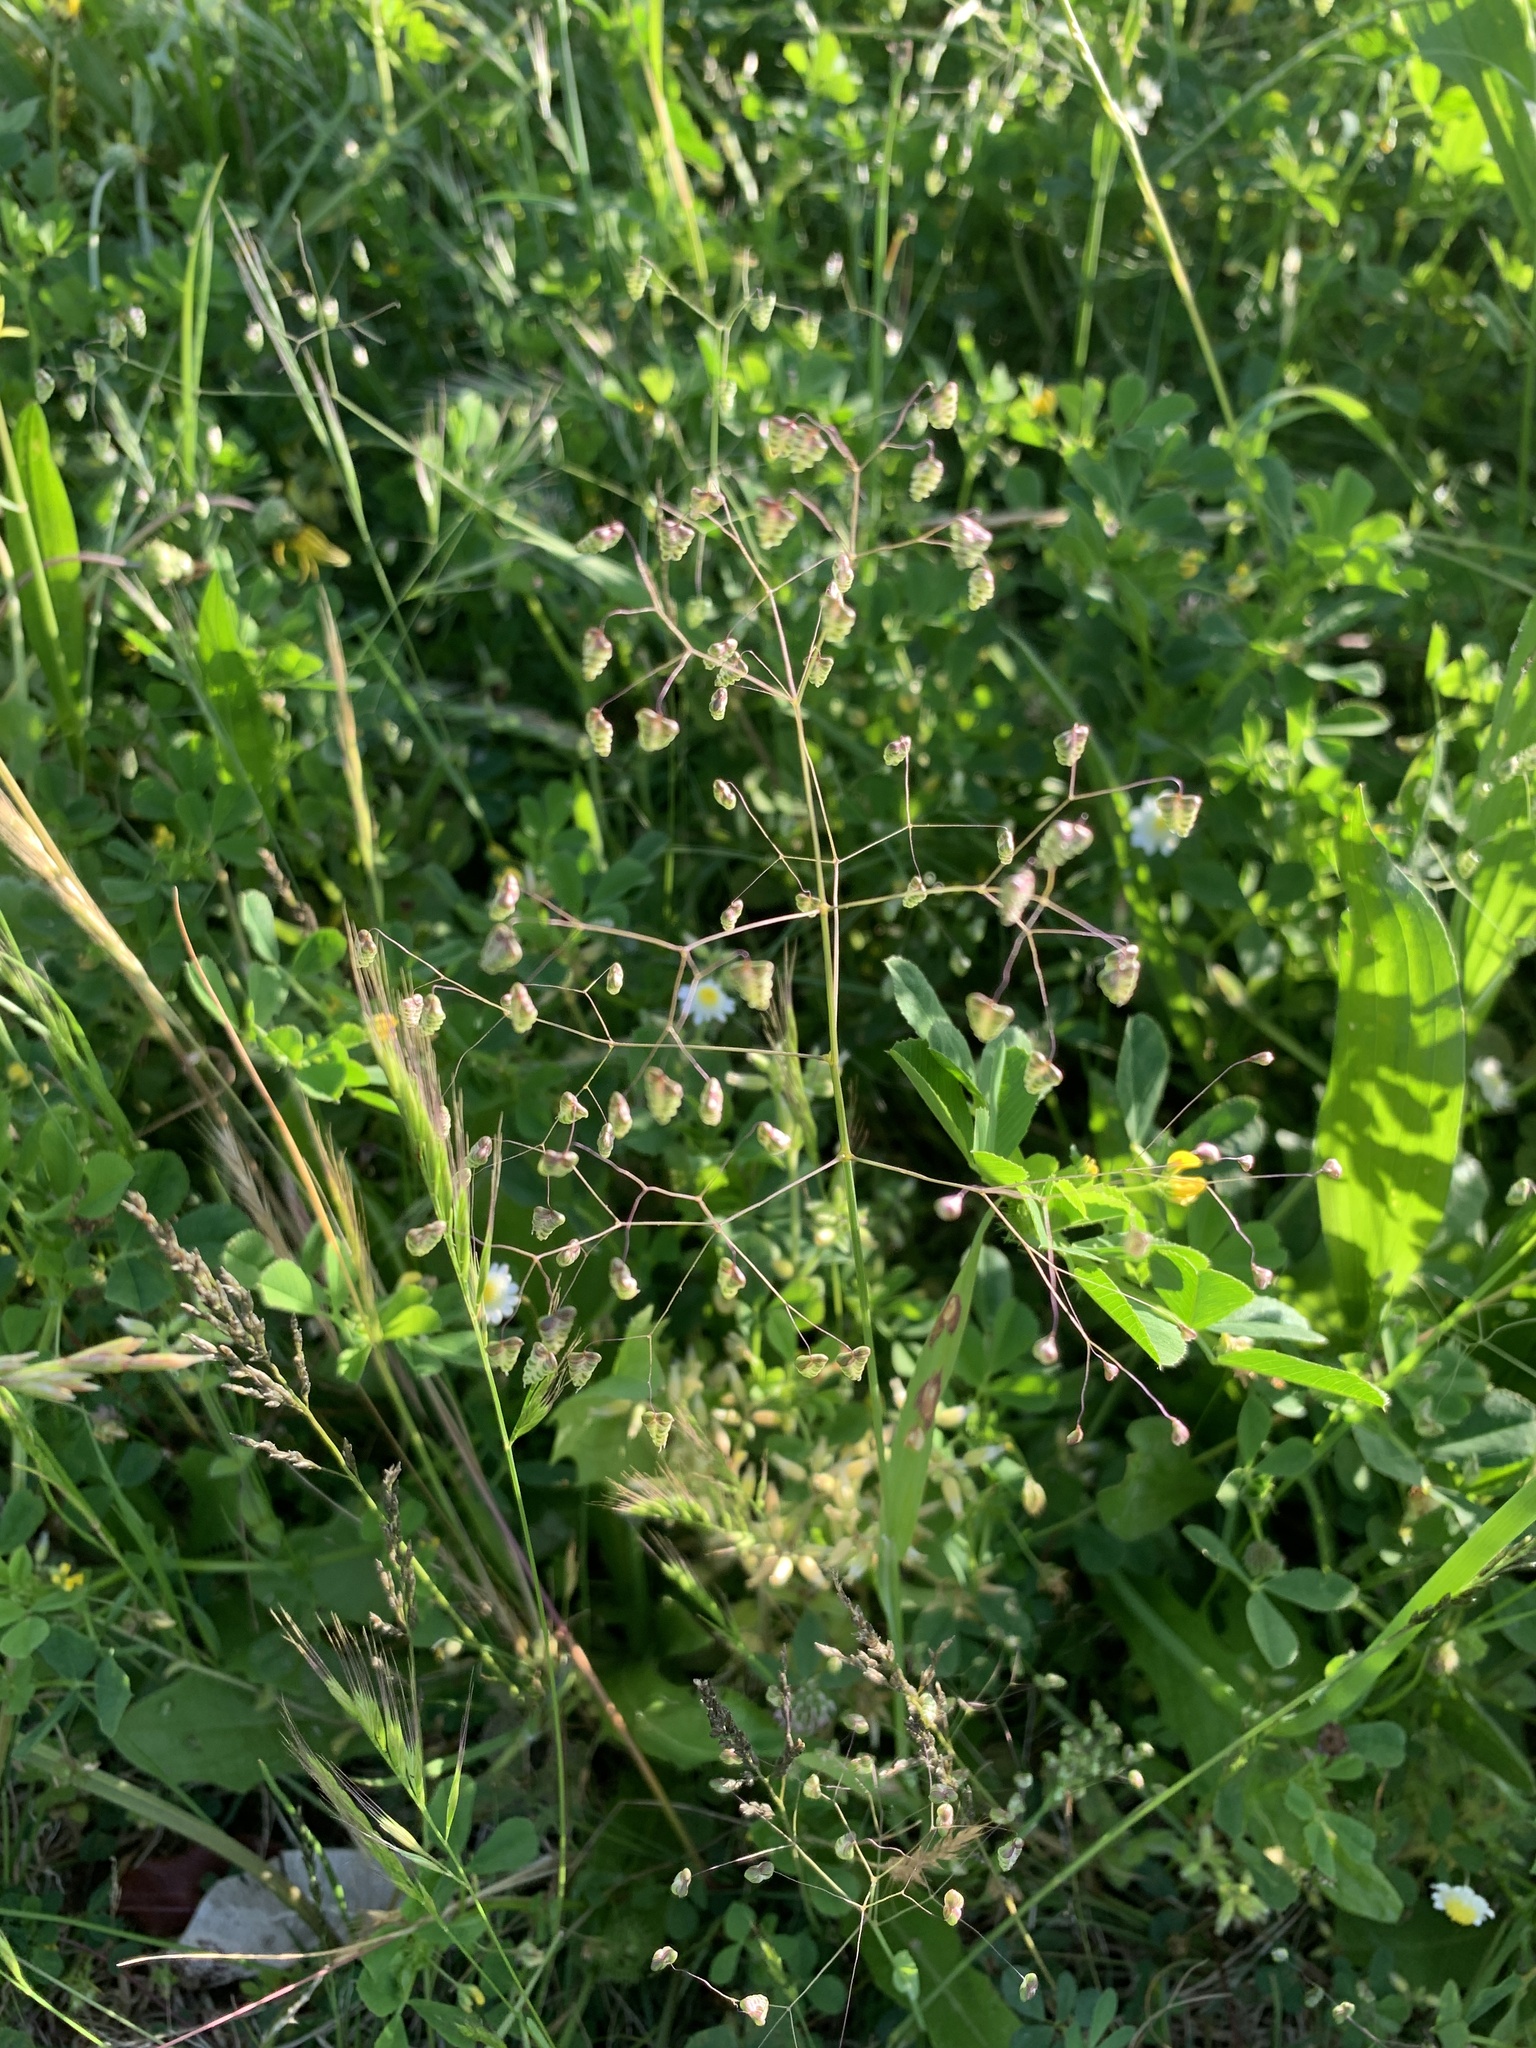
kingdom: Plantae
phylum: Tracheophyta
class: Liliopsida
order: Poales
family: Poaceae
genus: Briza
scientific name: Briza minor
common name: Lesser quaking-grass
